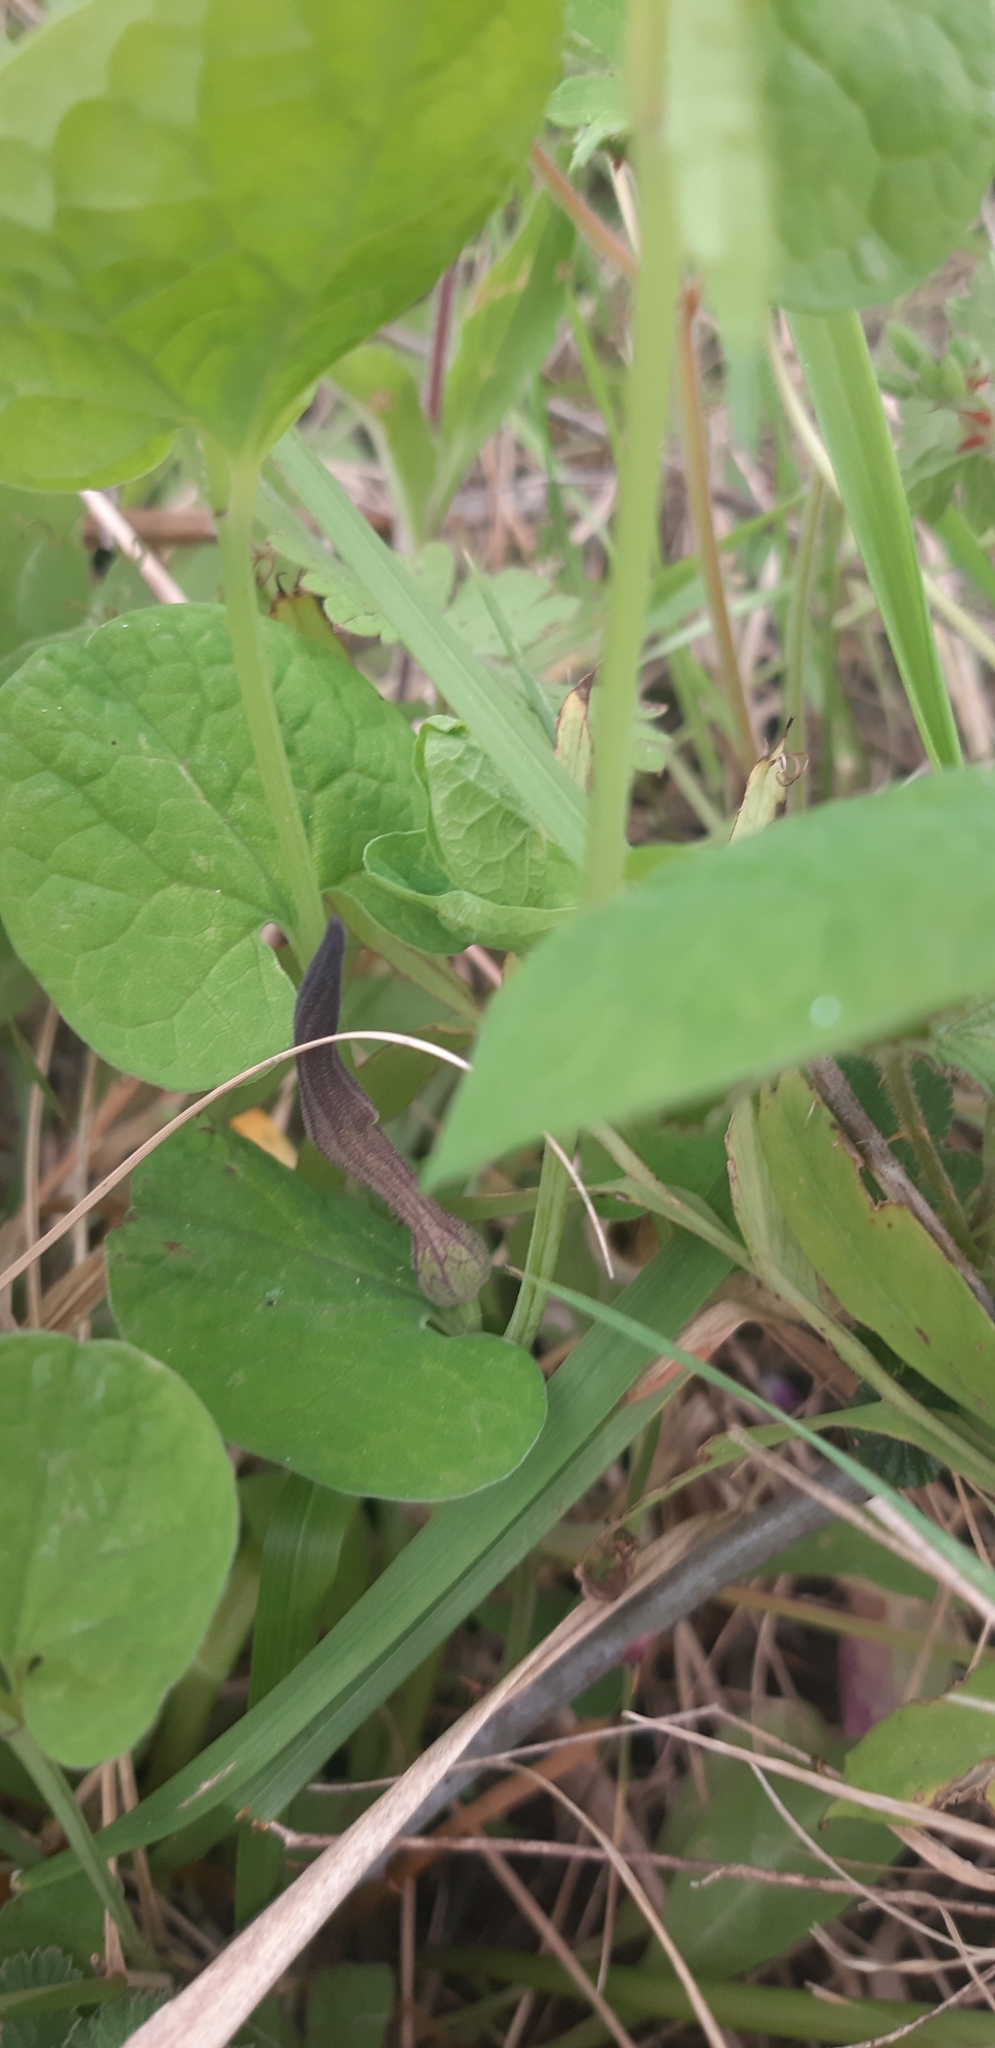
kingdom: Plantae
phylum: Tracheophyta
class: Magnoliopsida
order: Piperales
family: Aristolochiaceae
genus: Aristolochia
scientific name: Aristolochia clusii
